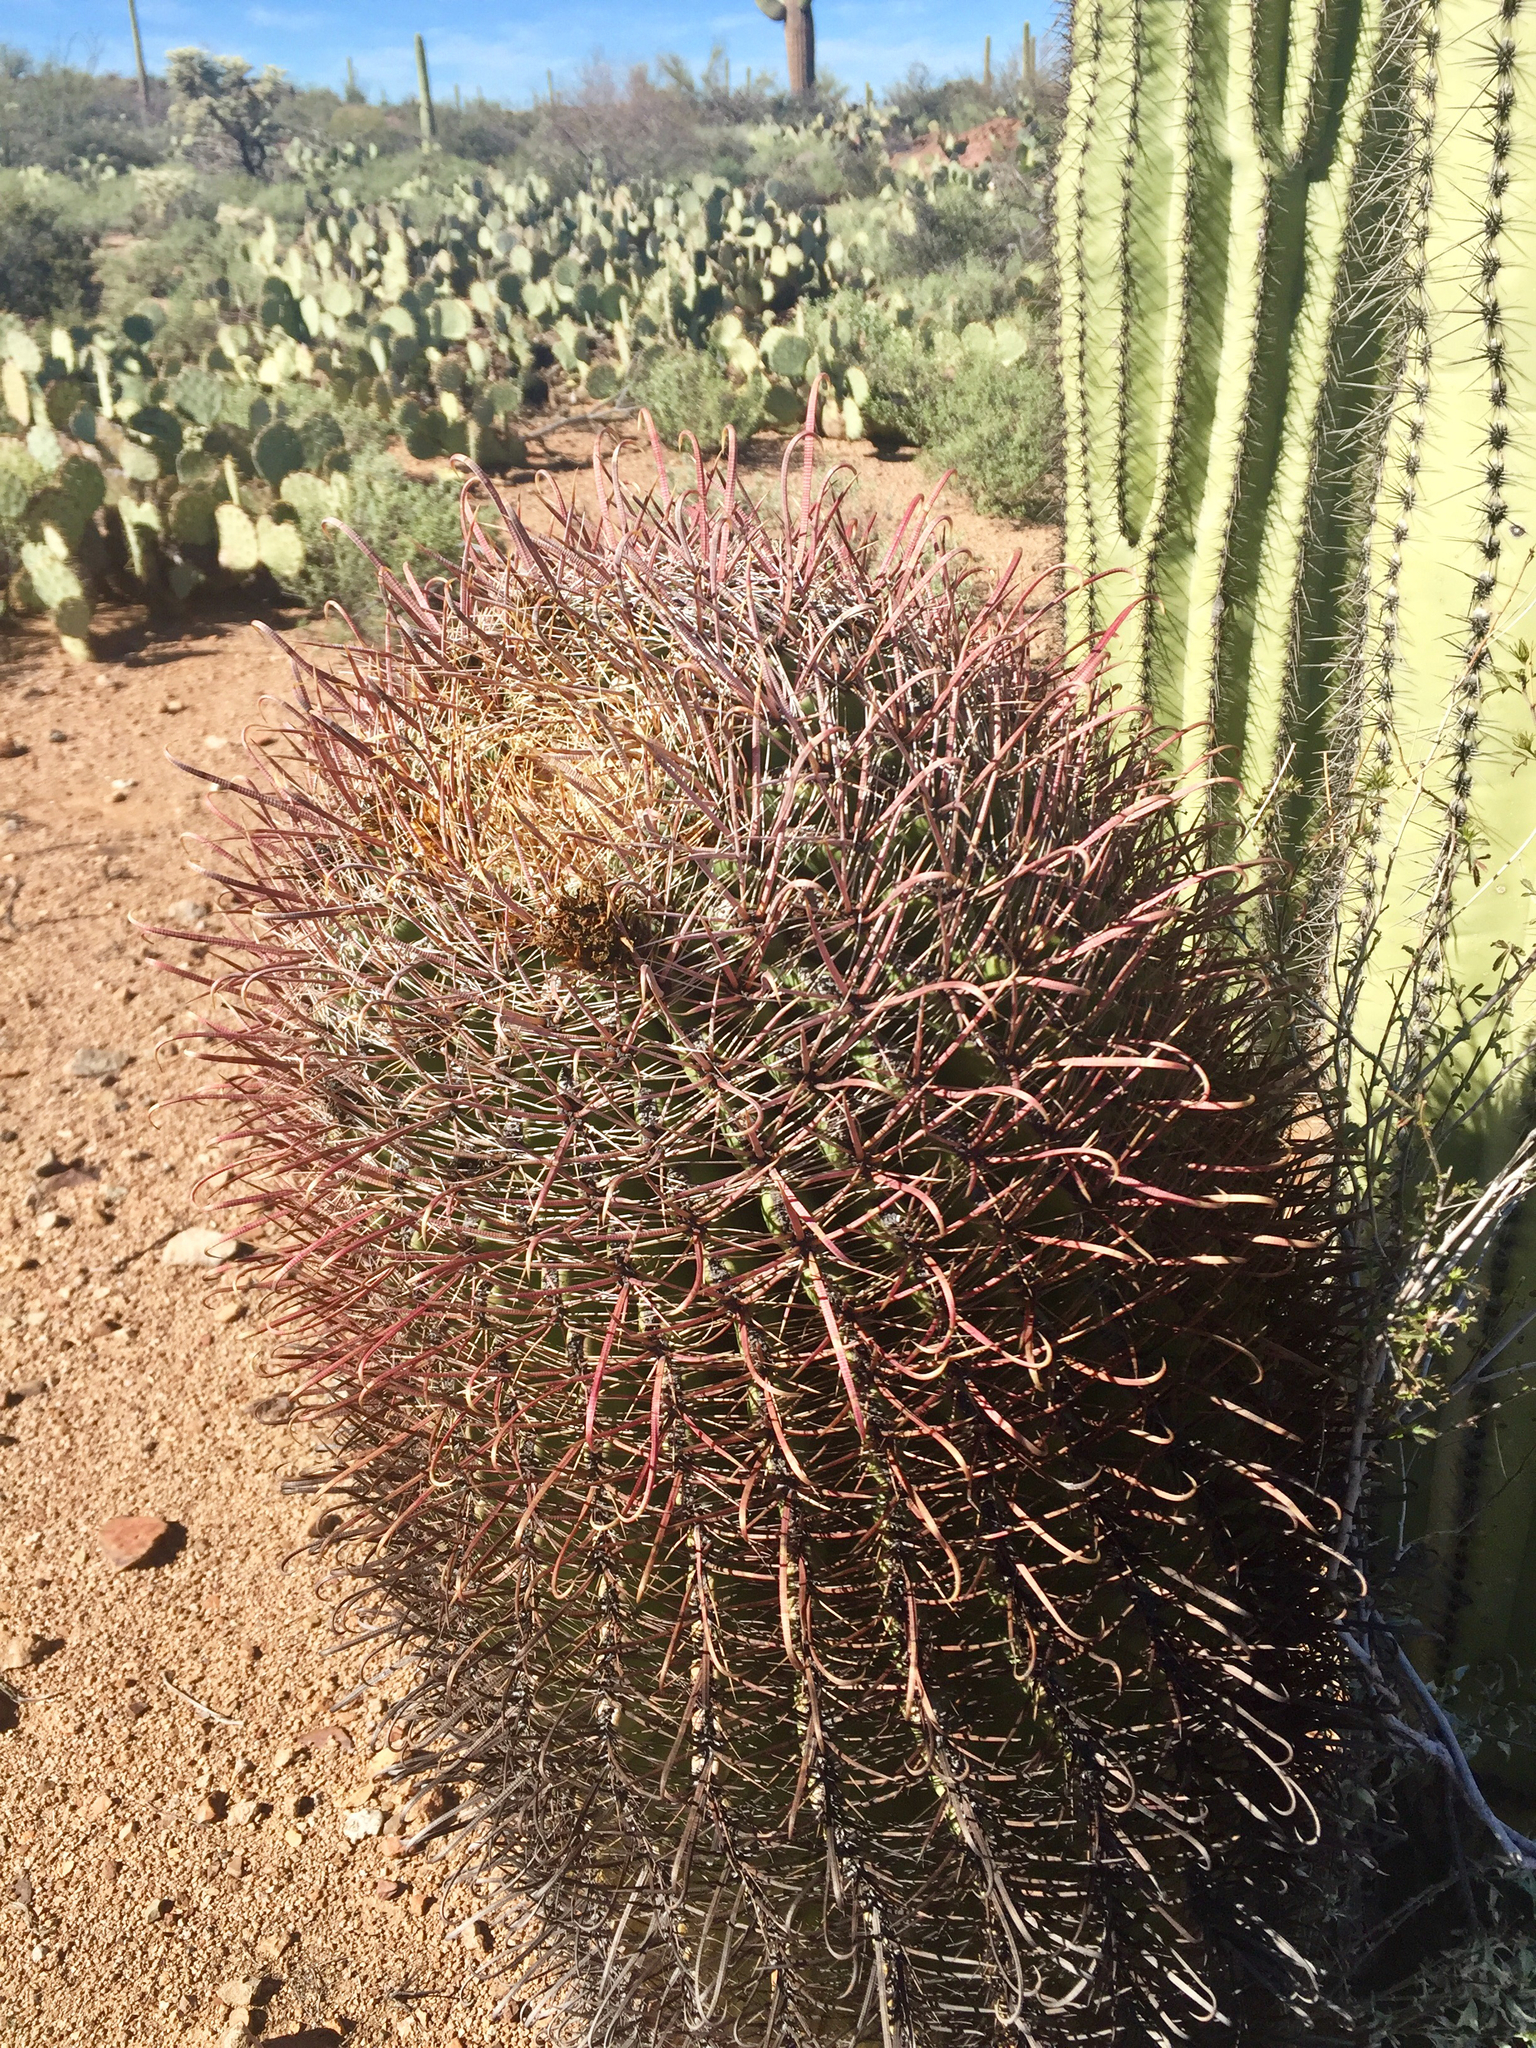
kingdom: Plantae
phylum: Tracheophyta
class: Magnoliopsida
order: Caryophyllales
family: Cactaceae
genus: Ferocactus
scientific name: Ferocactus cylindraceus
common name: California barrel cactus
